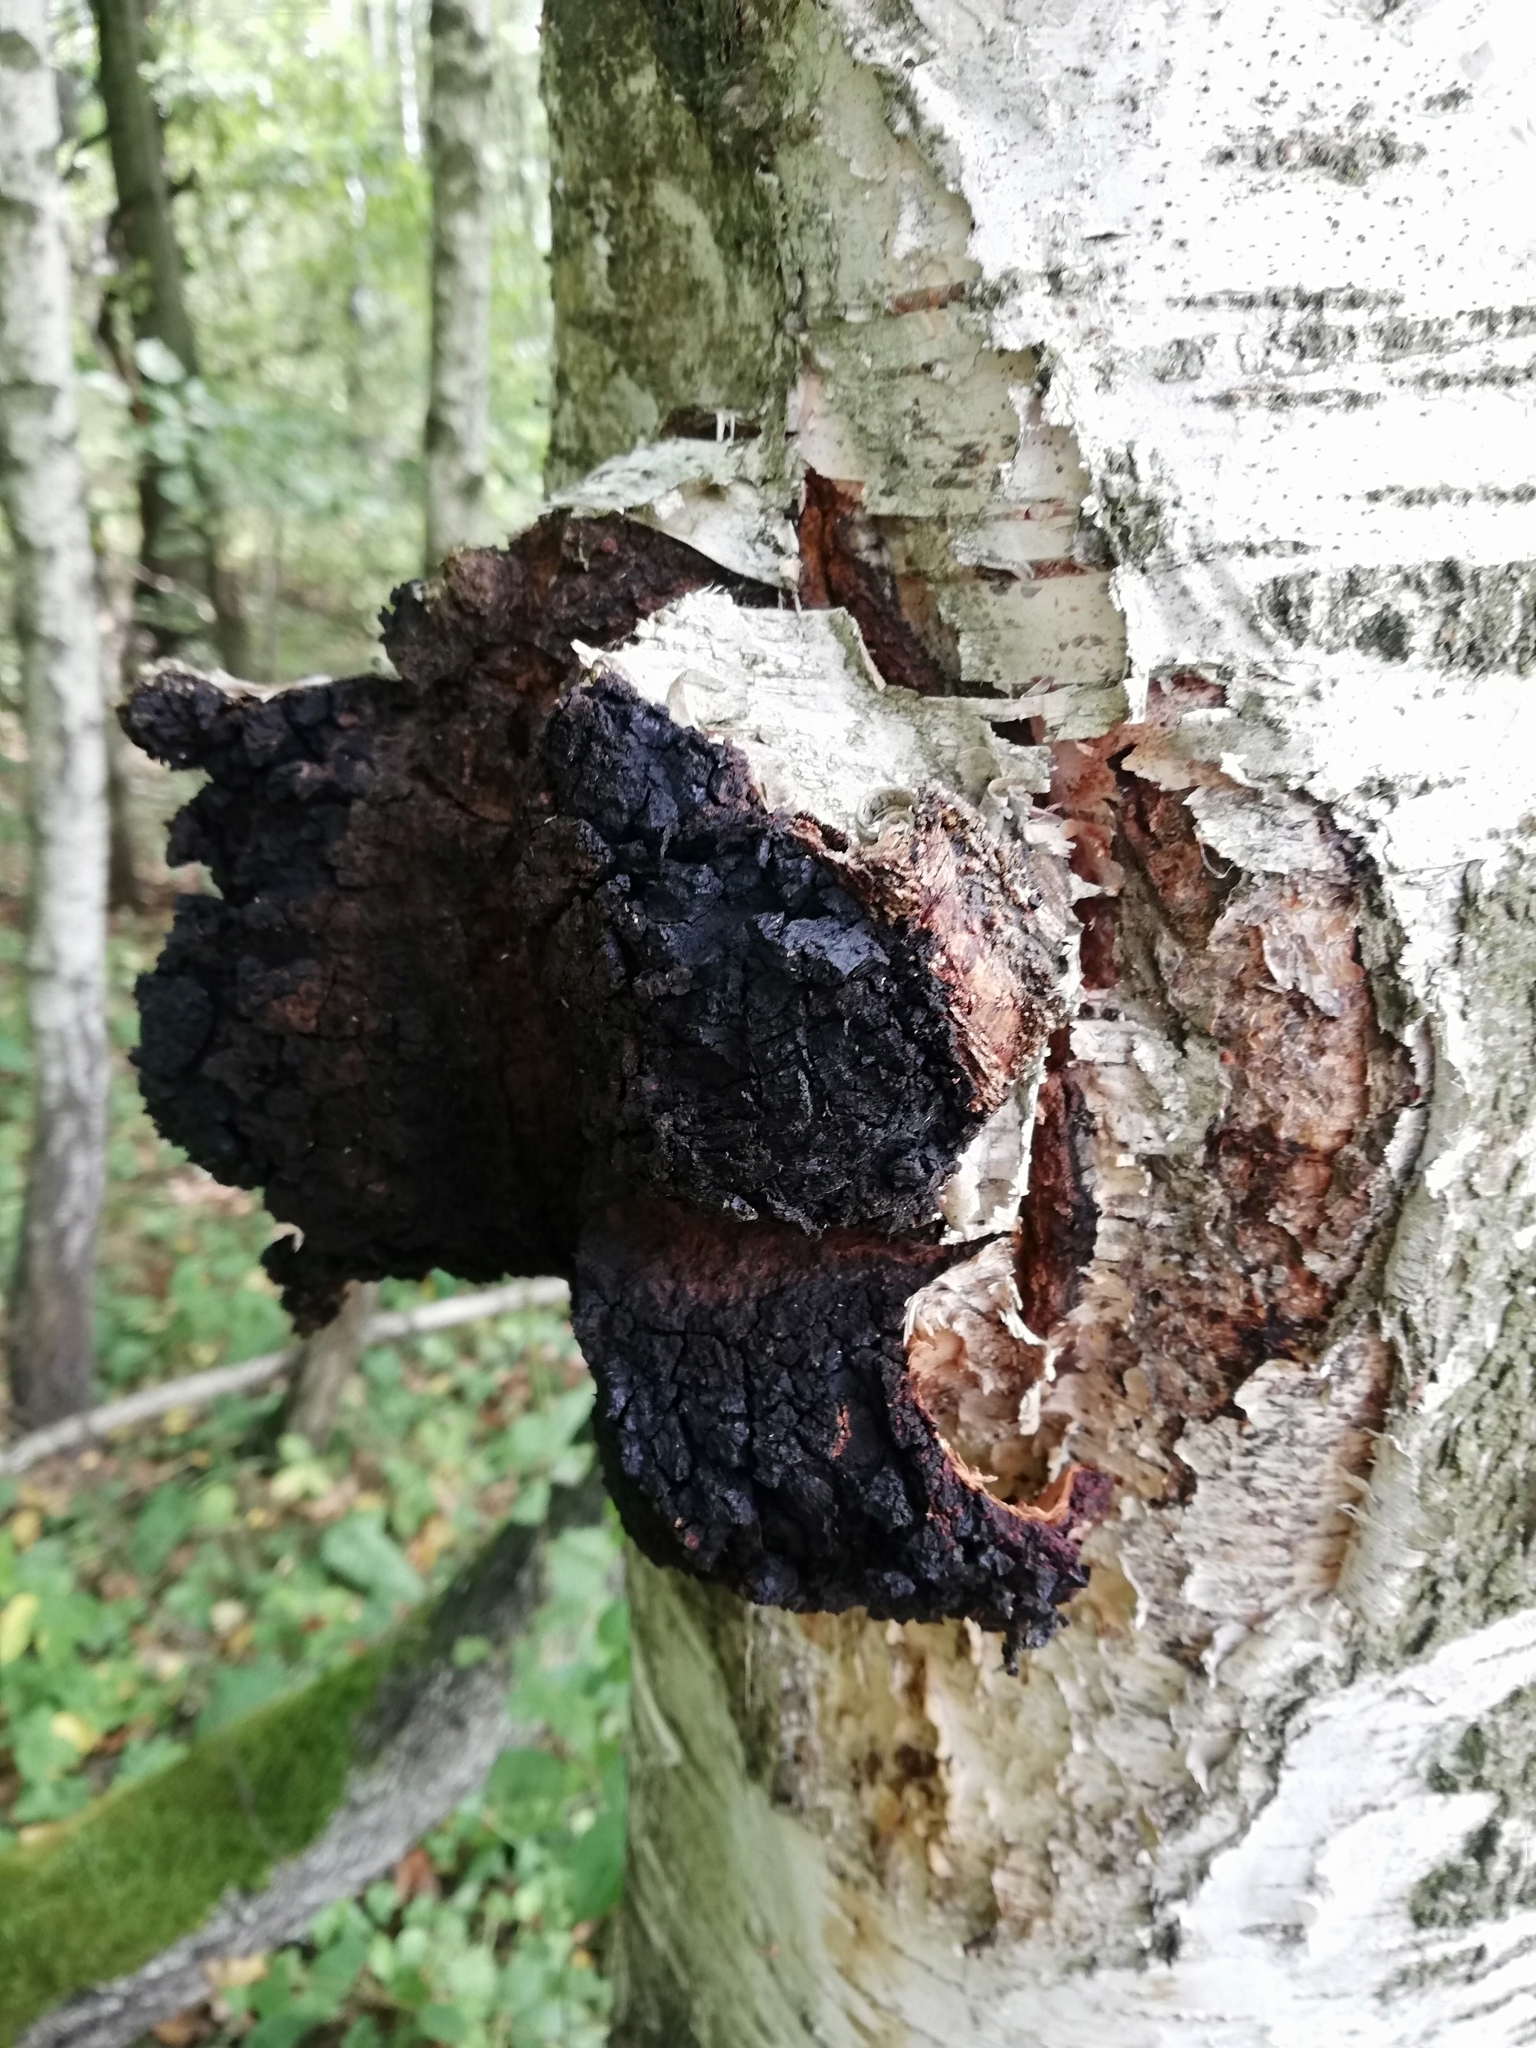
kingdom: Fungi
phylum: Basidiomycota
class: Agaricomycetes
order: Hymenochaetales
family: Hymenochaetaceae
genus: Inonotus
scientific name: Inonotus obliquus
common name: Chaga
